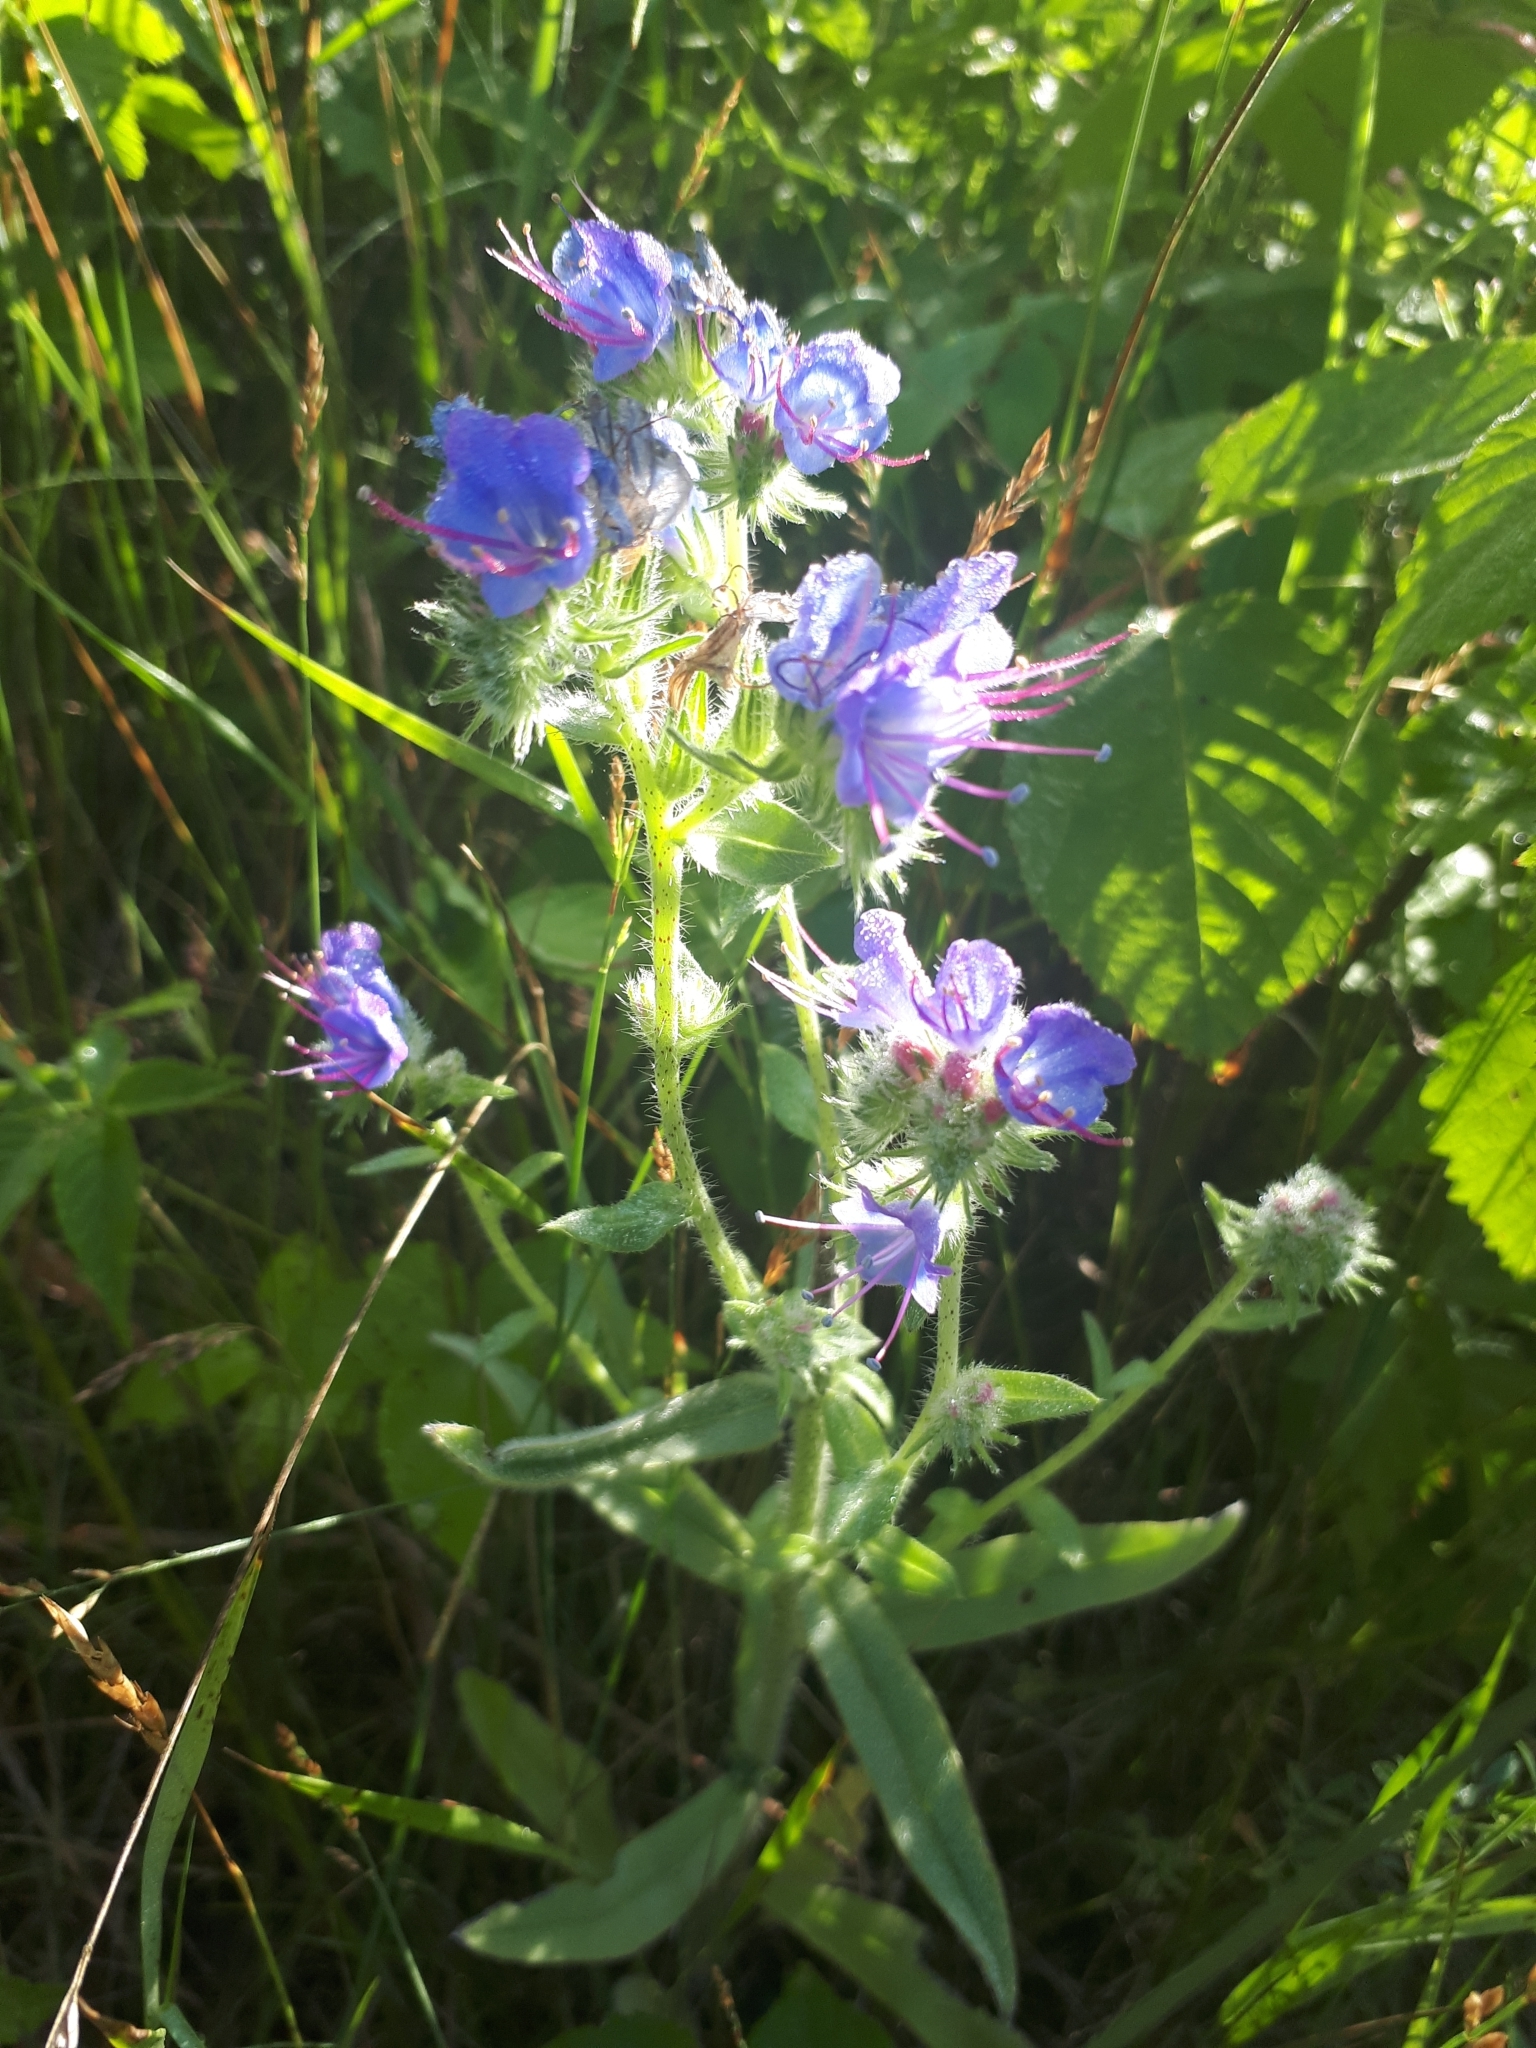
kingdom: Plantae
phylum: Tracheophyta
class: Magnoliopsida
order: Boraginales
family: Boraginaceae
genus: Echium
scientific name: Echium vulgare
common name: Common viper's bugloss
